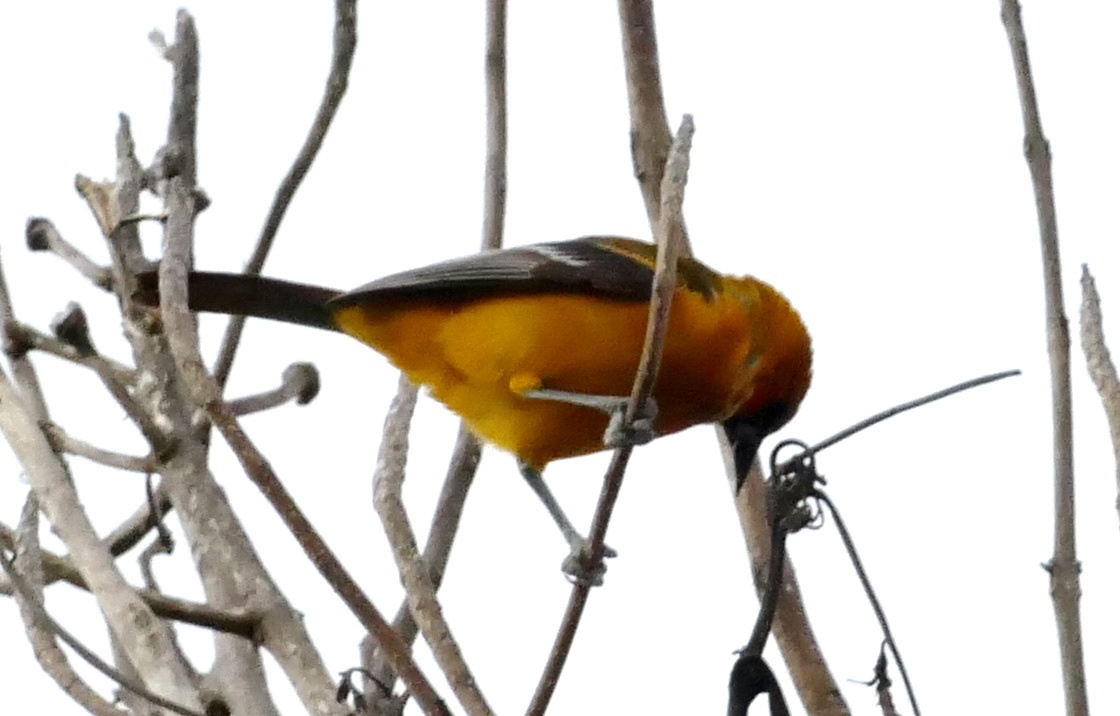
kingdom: Animalia
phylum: Chordata
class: Aves
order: Passeriformes
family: Icteridae
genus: Icterus
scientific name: Icterus gularis
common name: Altamira oriole
